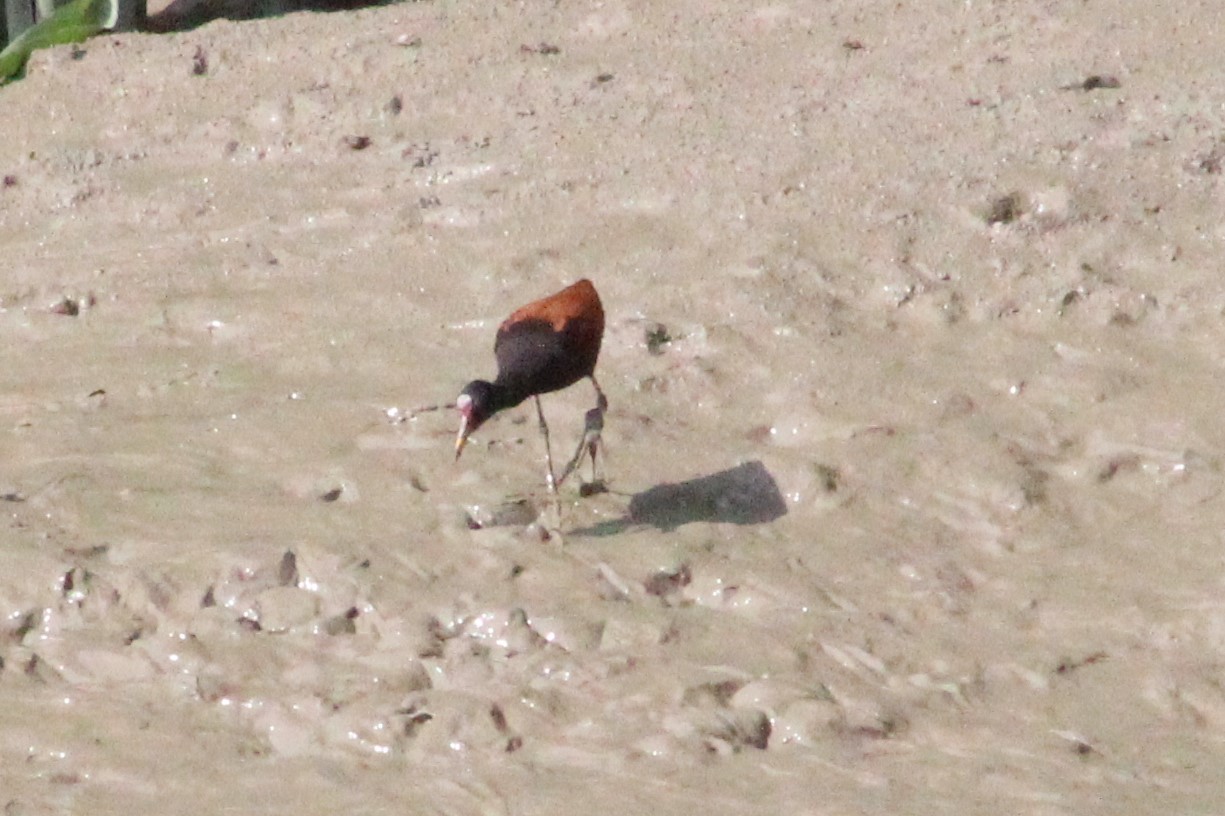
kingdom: Animalia
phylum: Chordata
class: Aves
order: Charadriiformes
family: Jacanidae
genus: Jacana
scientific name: Jacana jacana
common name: Wattled jacana
